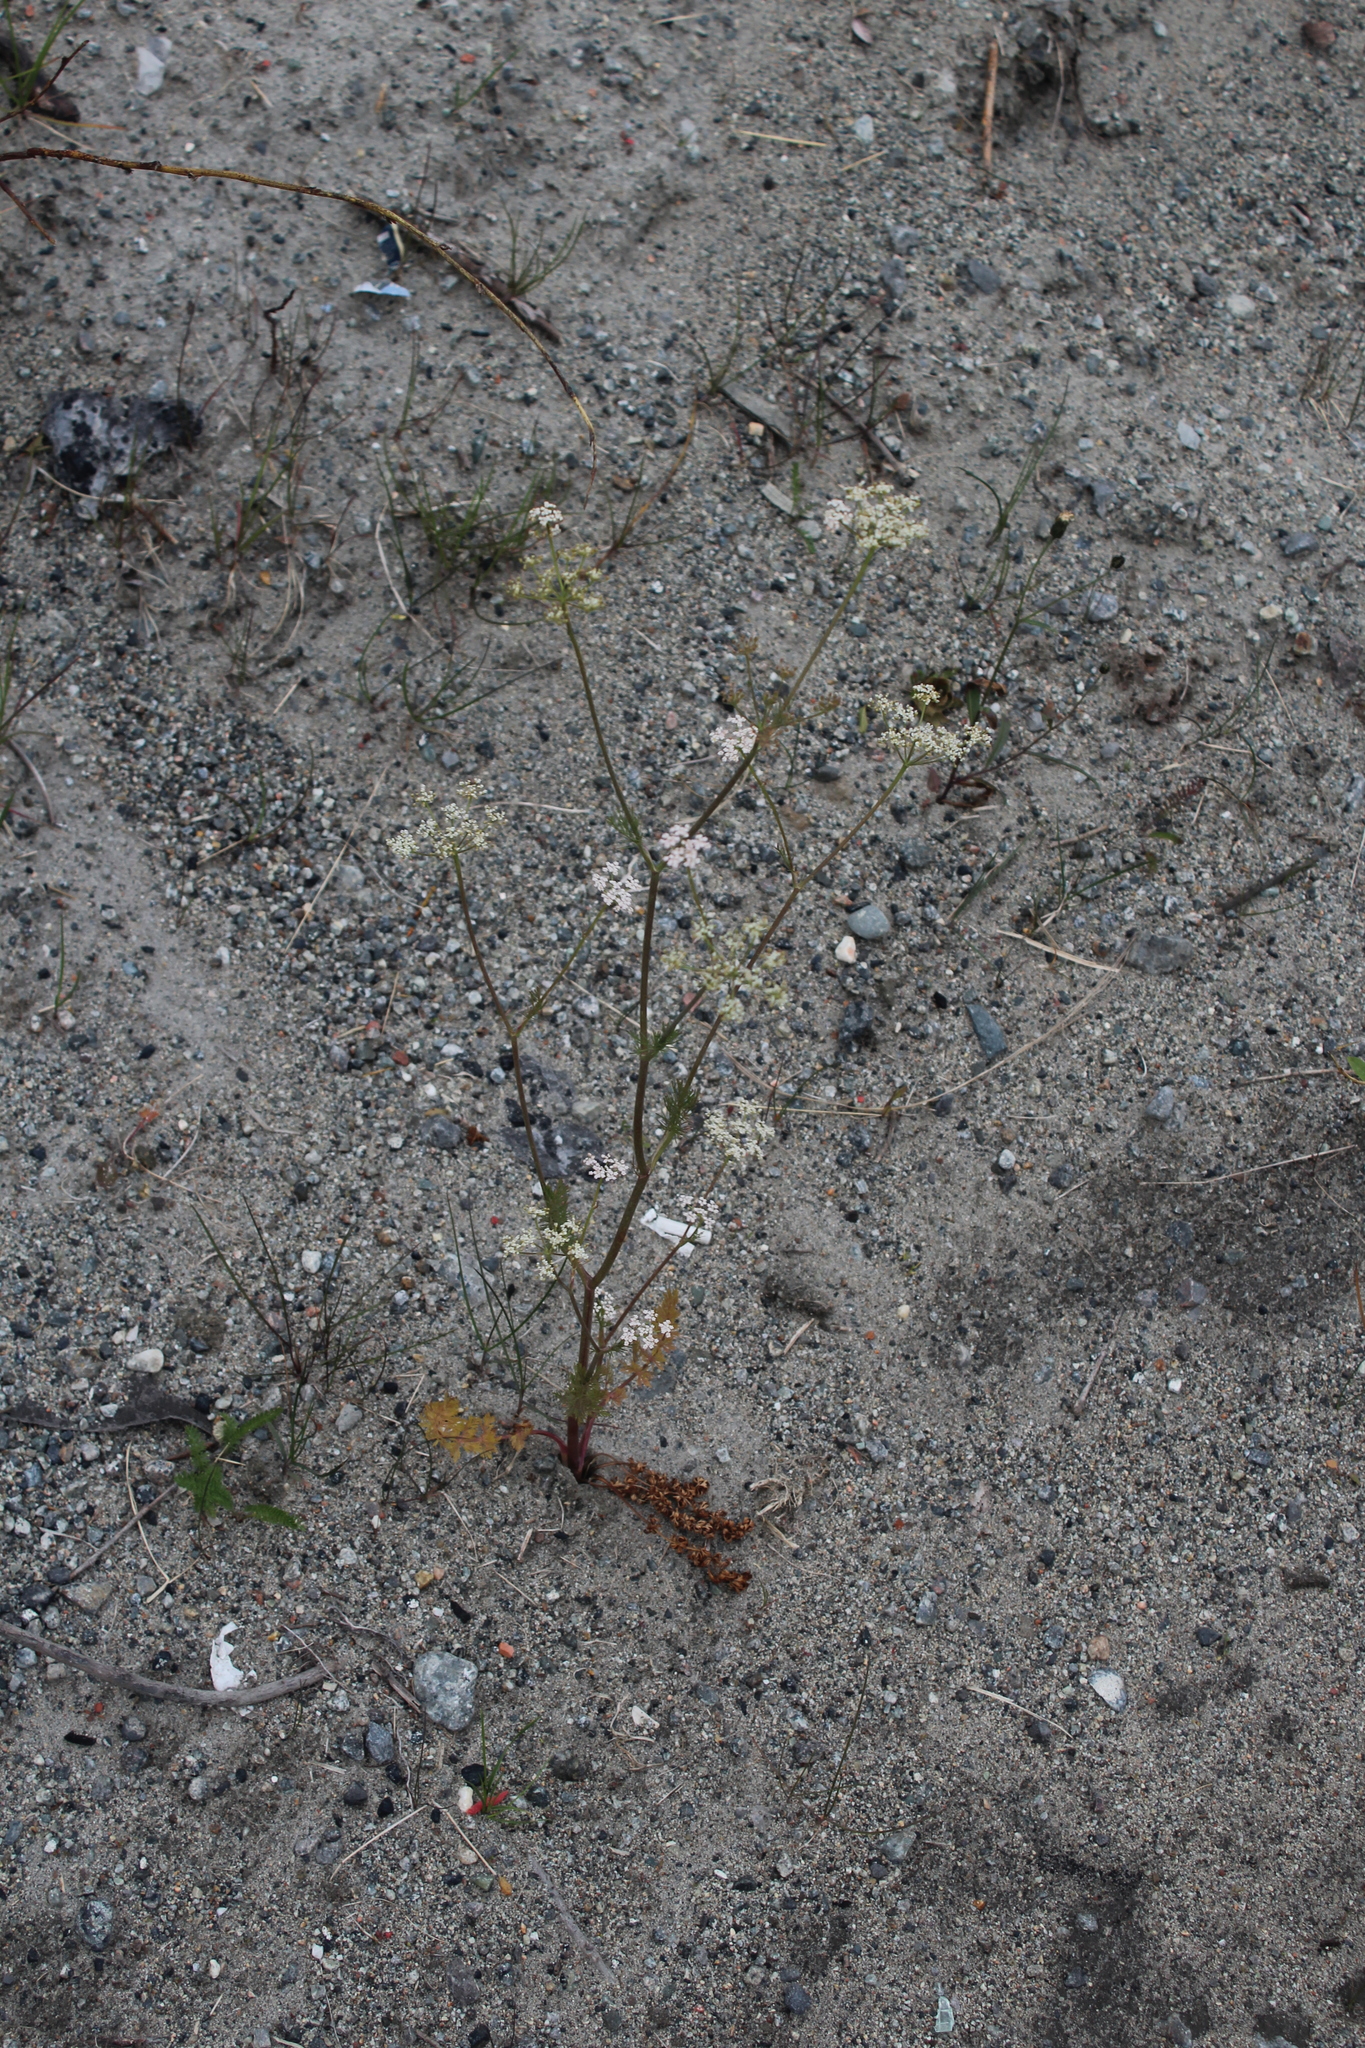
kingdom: Plantae
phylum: Tracheophyta
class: Magnoliopsida
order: Apiales
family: Apiaceae
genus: Carum
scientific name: Carum carvi
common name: Caraway
